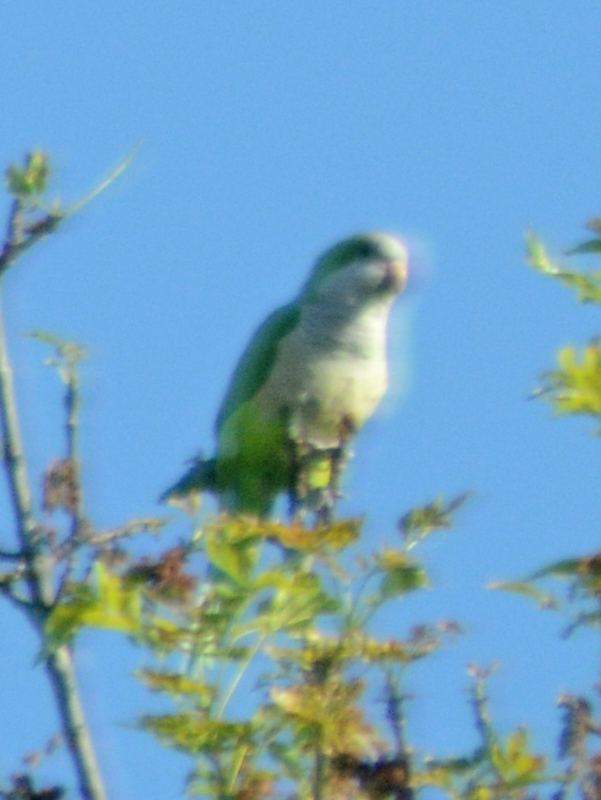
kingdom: Animalia
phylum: Chordata
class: Aves
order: Psittaciformes
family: Psittacidae
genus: Myiopsitta
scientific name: Myiopsitta monachus
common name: Monk parakeet
